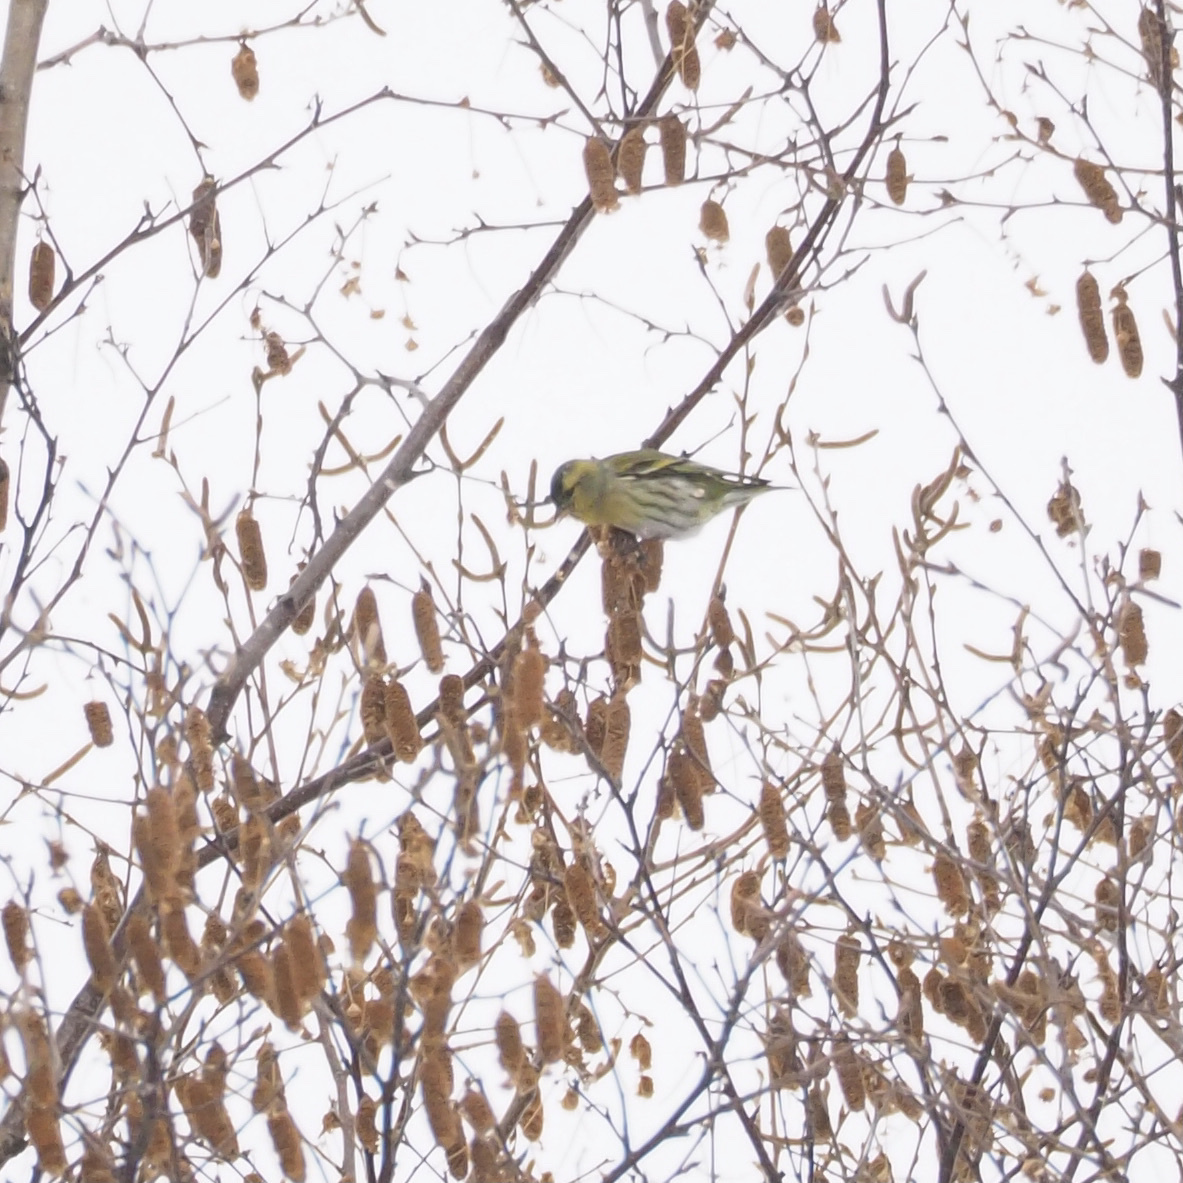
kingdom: Animalia
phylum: Chordata
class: Aves
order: Passeriformes
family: Fringillidae
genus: Spinus
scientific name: Spinus spinus
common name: Eurasian siskin
